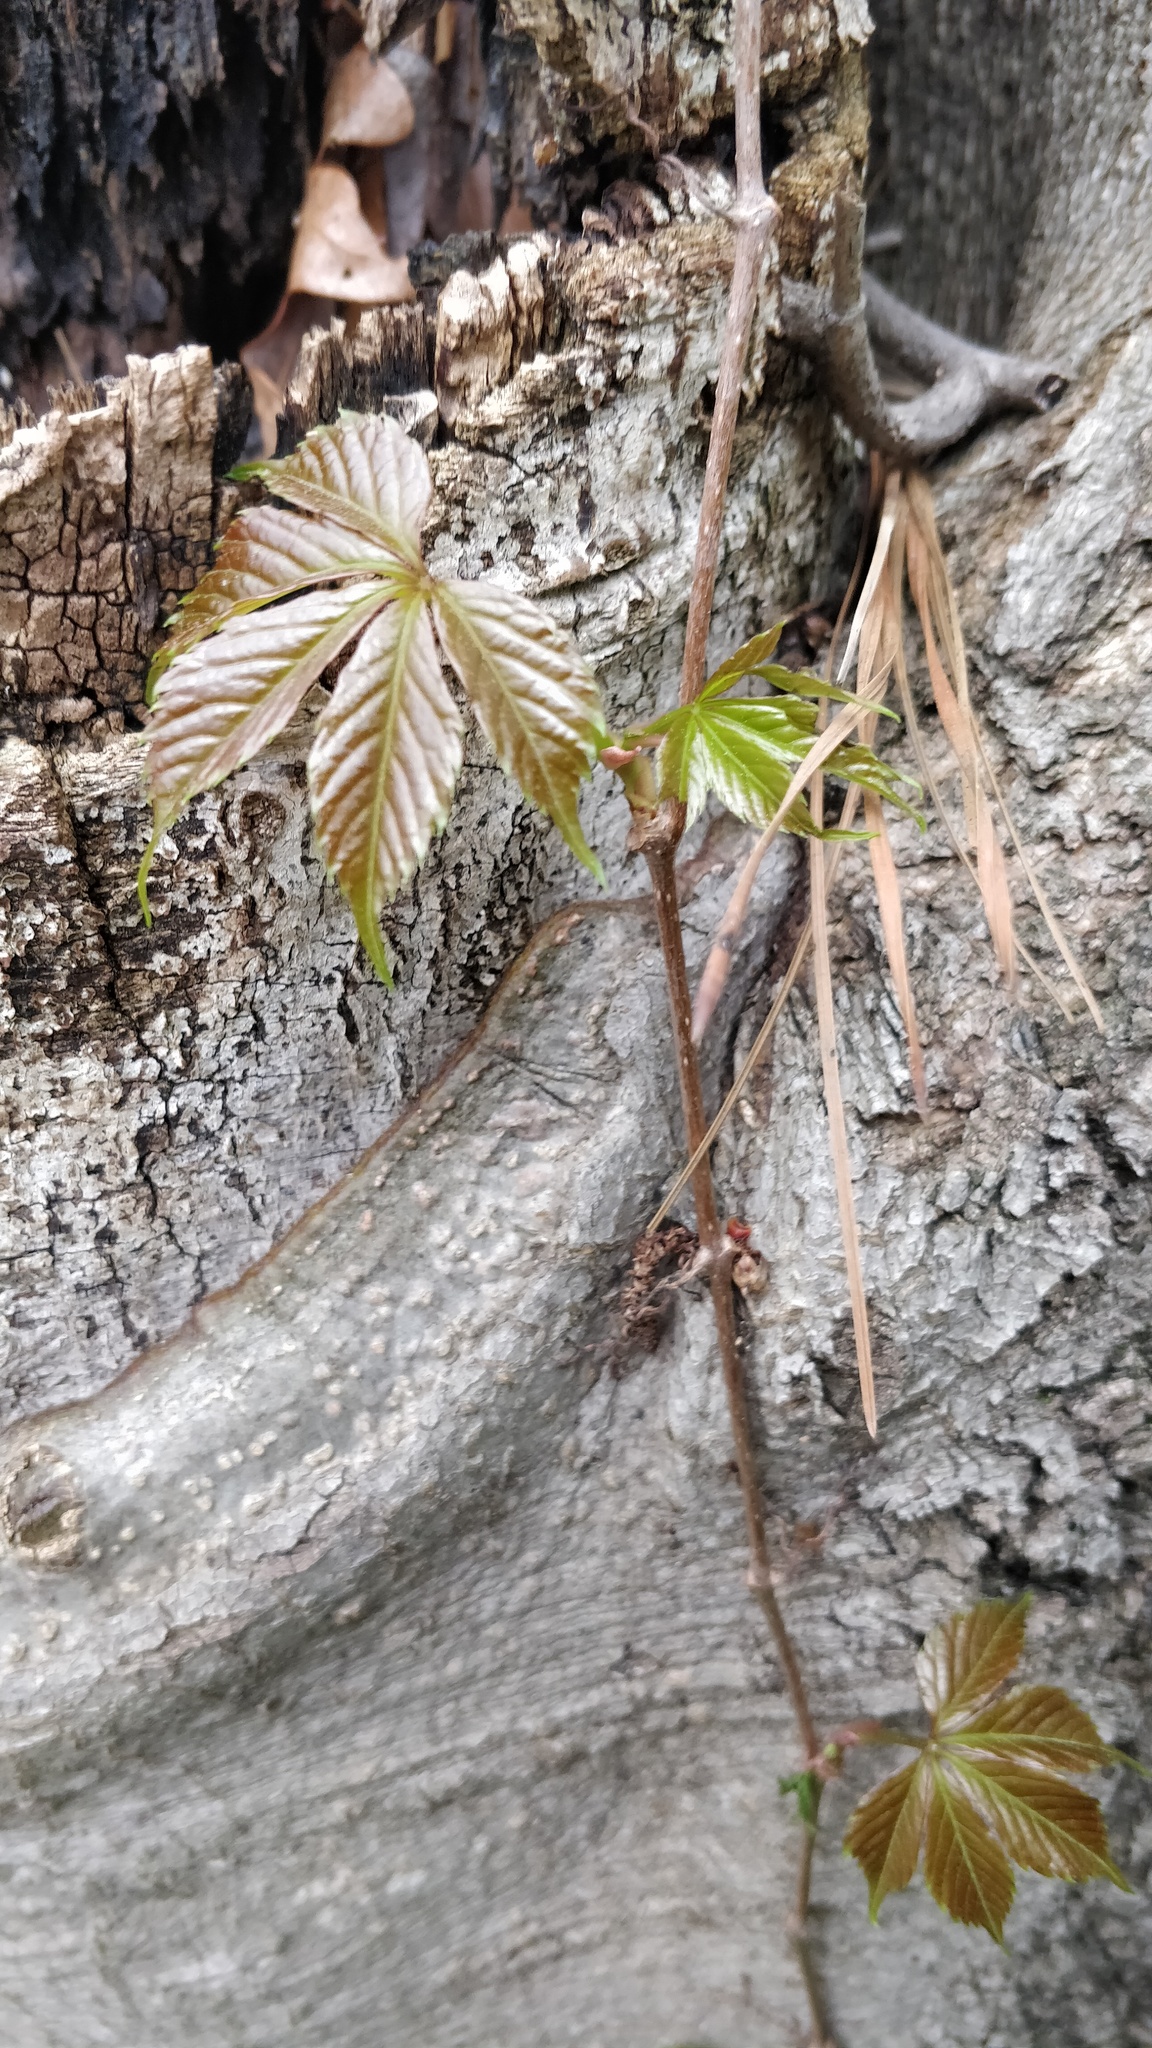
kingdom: Plantae
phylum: Tracheophyta
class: Magnoliopsida
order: Vitales
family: Vitaceae
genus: Parthenocissus
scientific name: Parthenocissus quinquefolia
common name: Virginia-creeper
